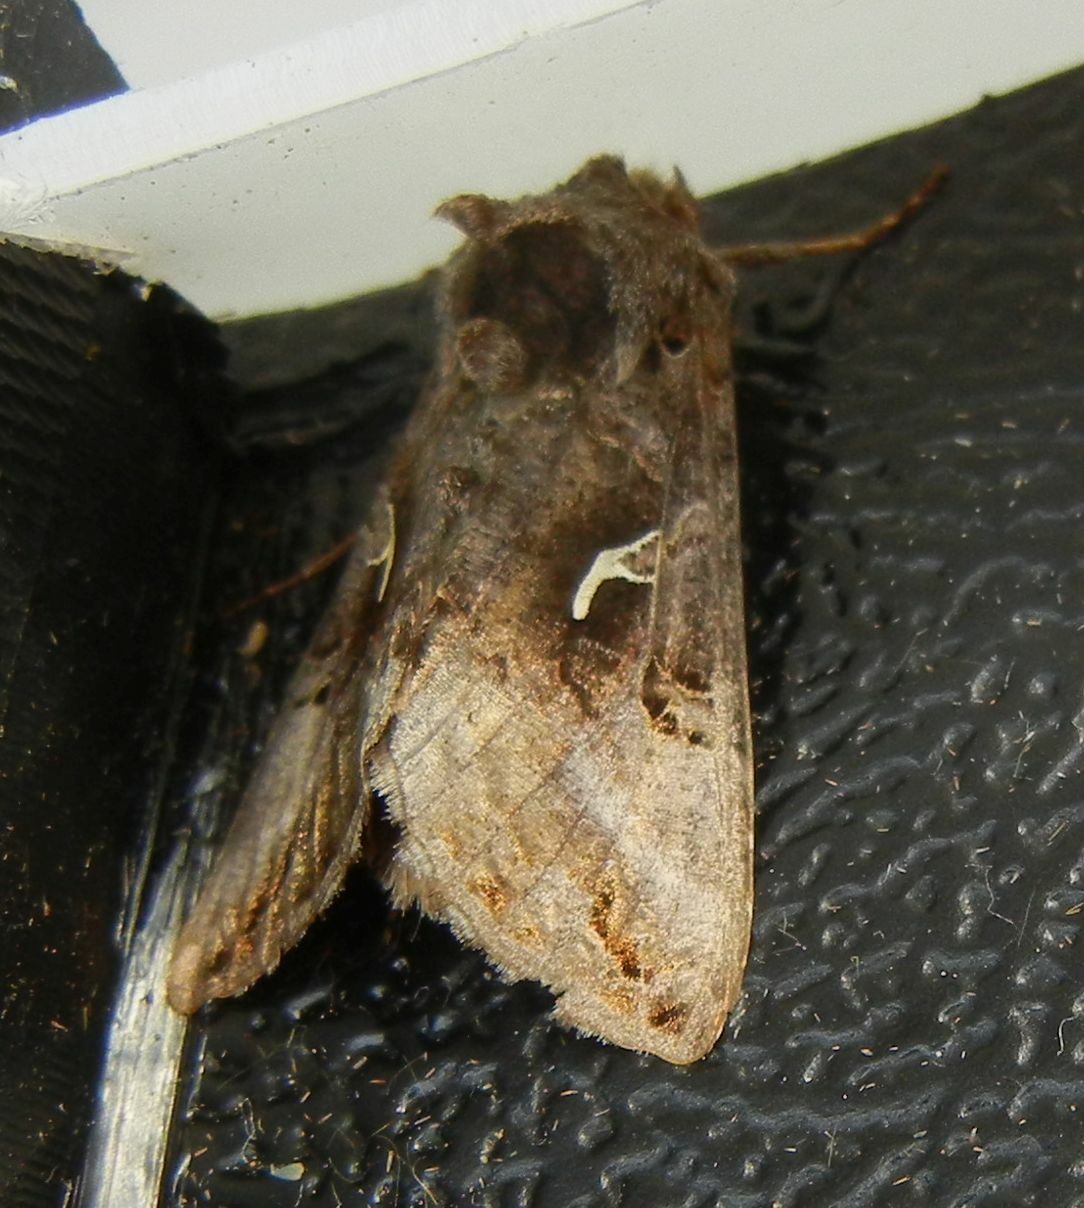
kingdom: Animalia
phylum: Arthropoda
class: Insecta
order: Lepidoptera
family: Noctuidae
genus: Autographa
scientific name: Autographa gamma
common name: Silver y
